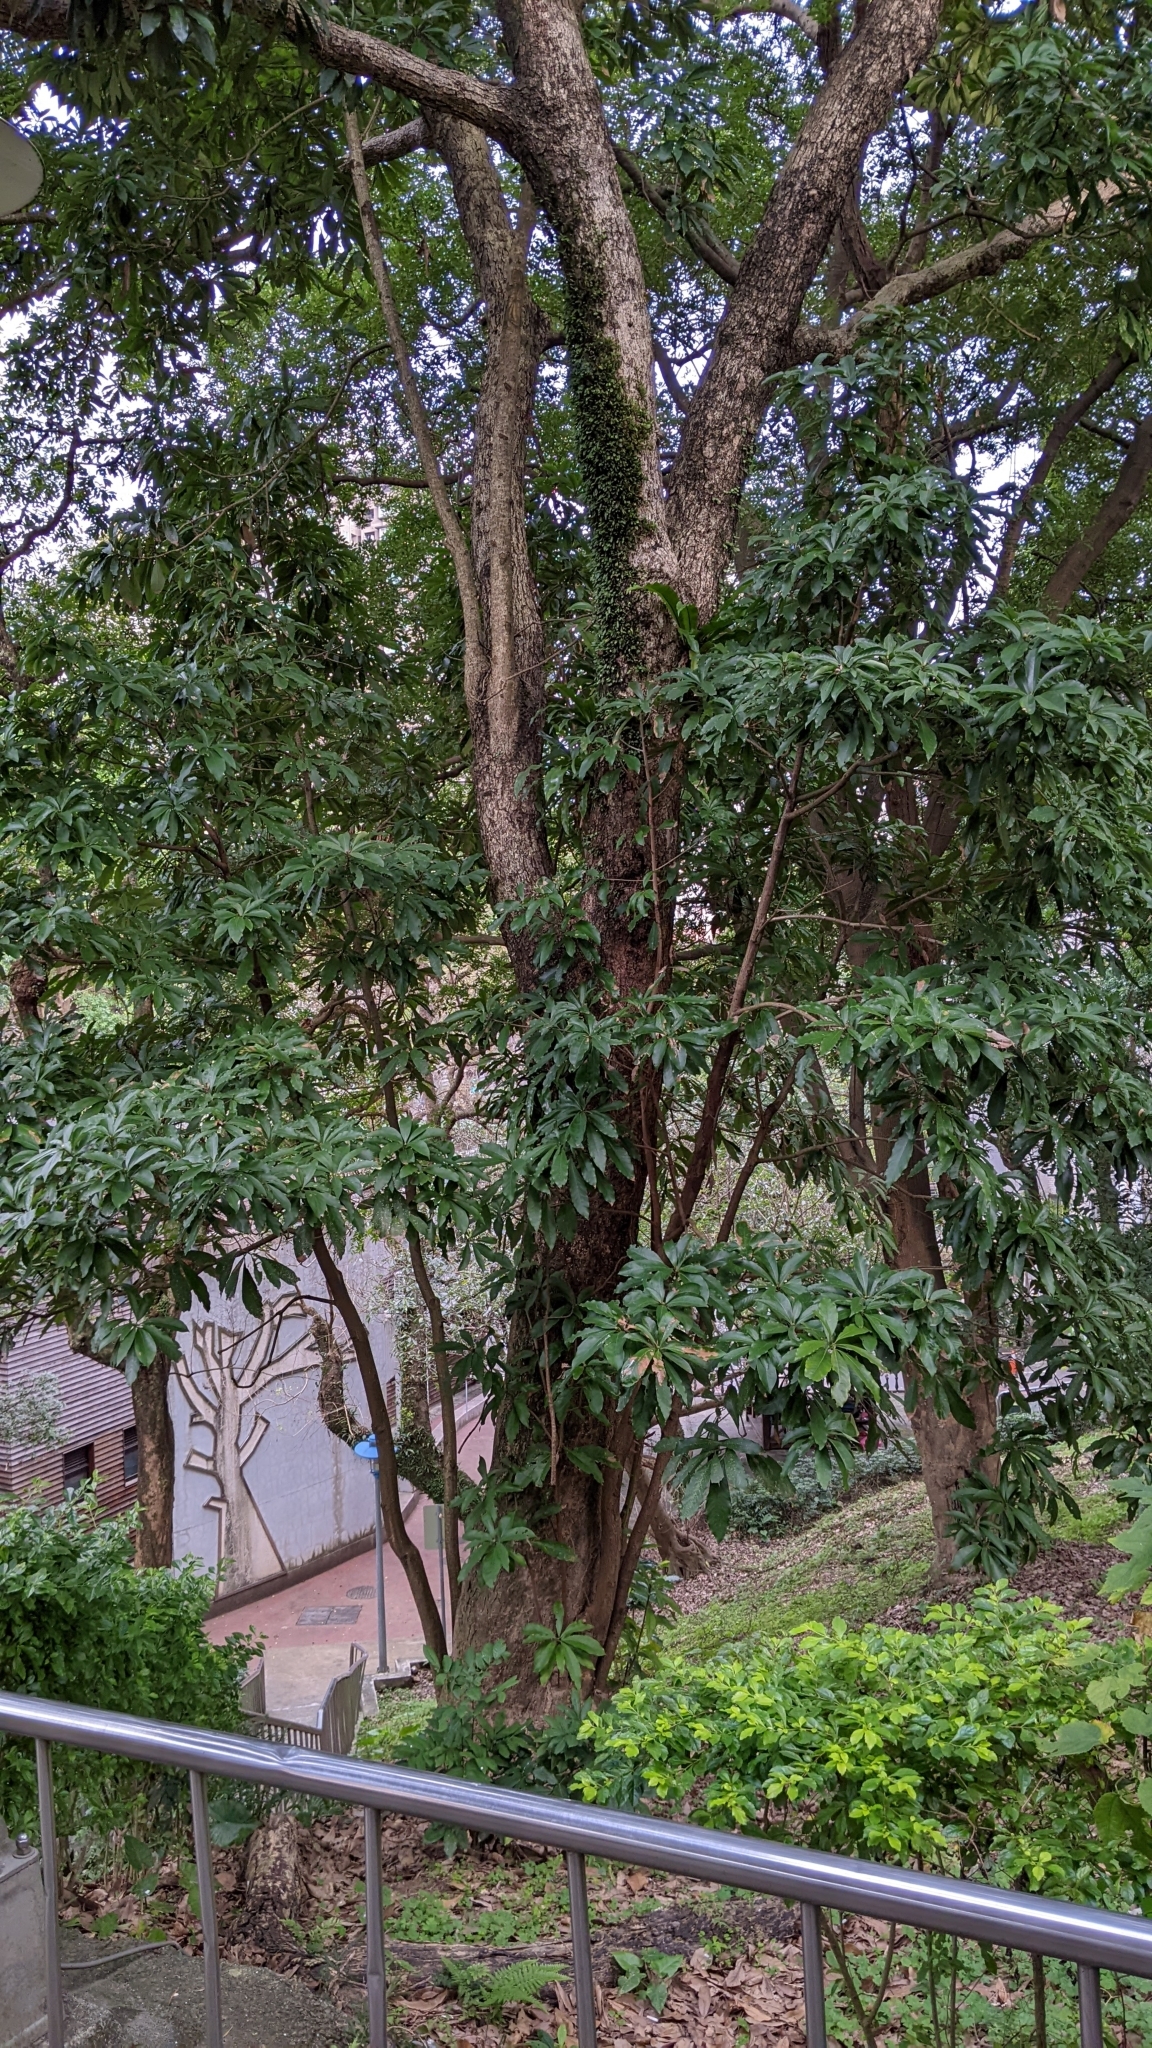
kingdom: Plantae
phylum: Tracheophyta
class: Magnoliopsida
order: Laurales
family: Lauraceae
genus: Machilus
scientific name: Machilus japonica
